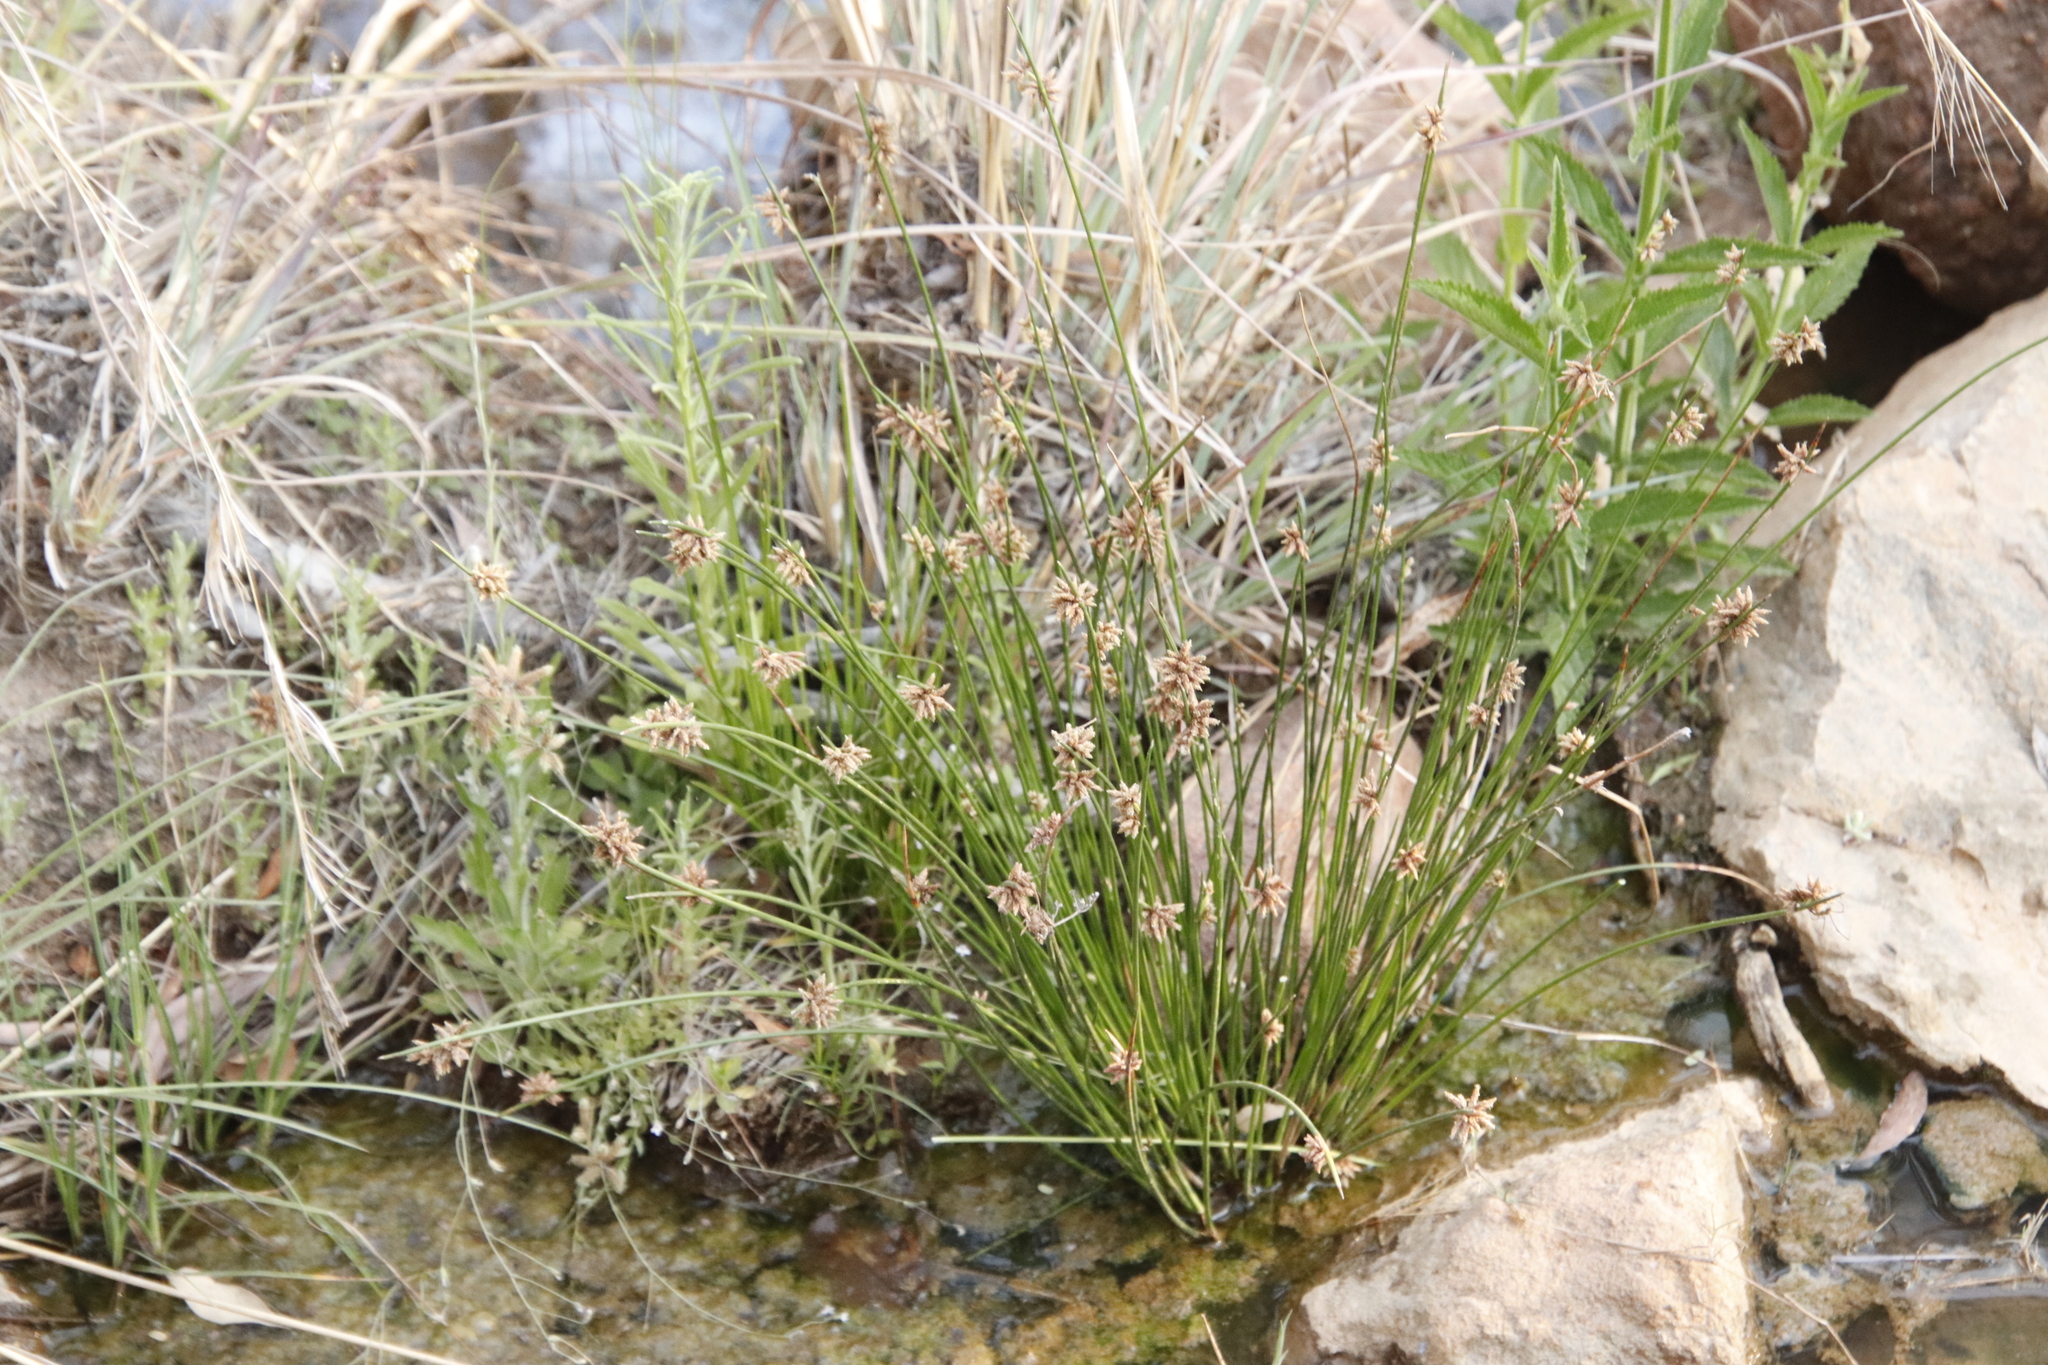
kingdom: Plantae
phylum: Tracheophyta
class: Liliopsida
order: Poales
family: Cyperaceae
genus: Afroscirpoides
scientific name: Afroscirpoides dioeca
